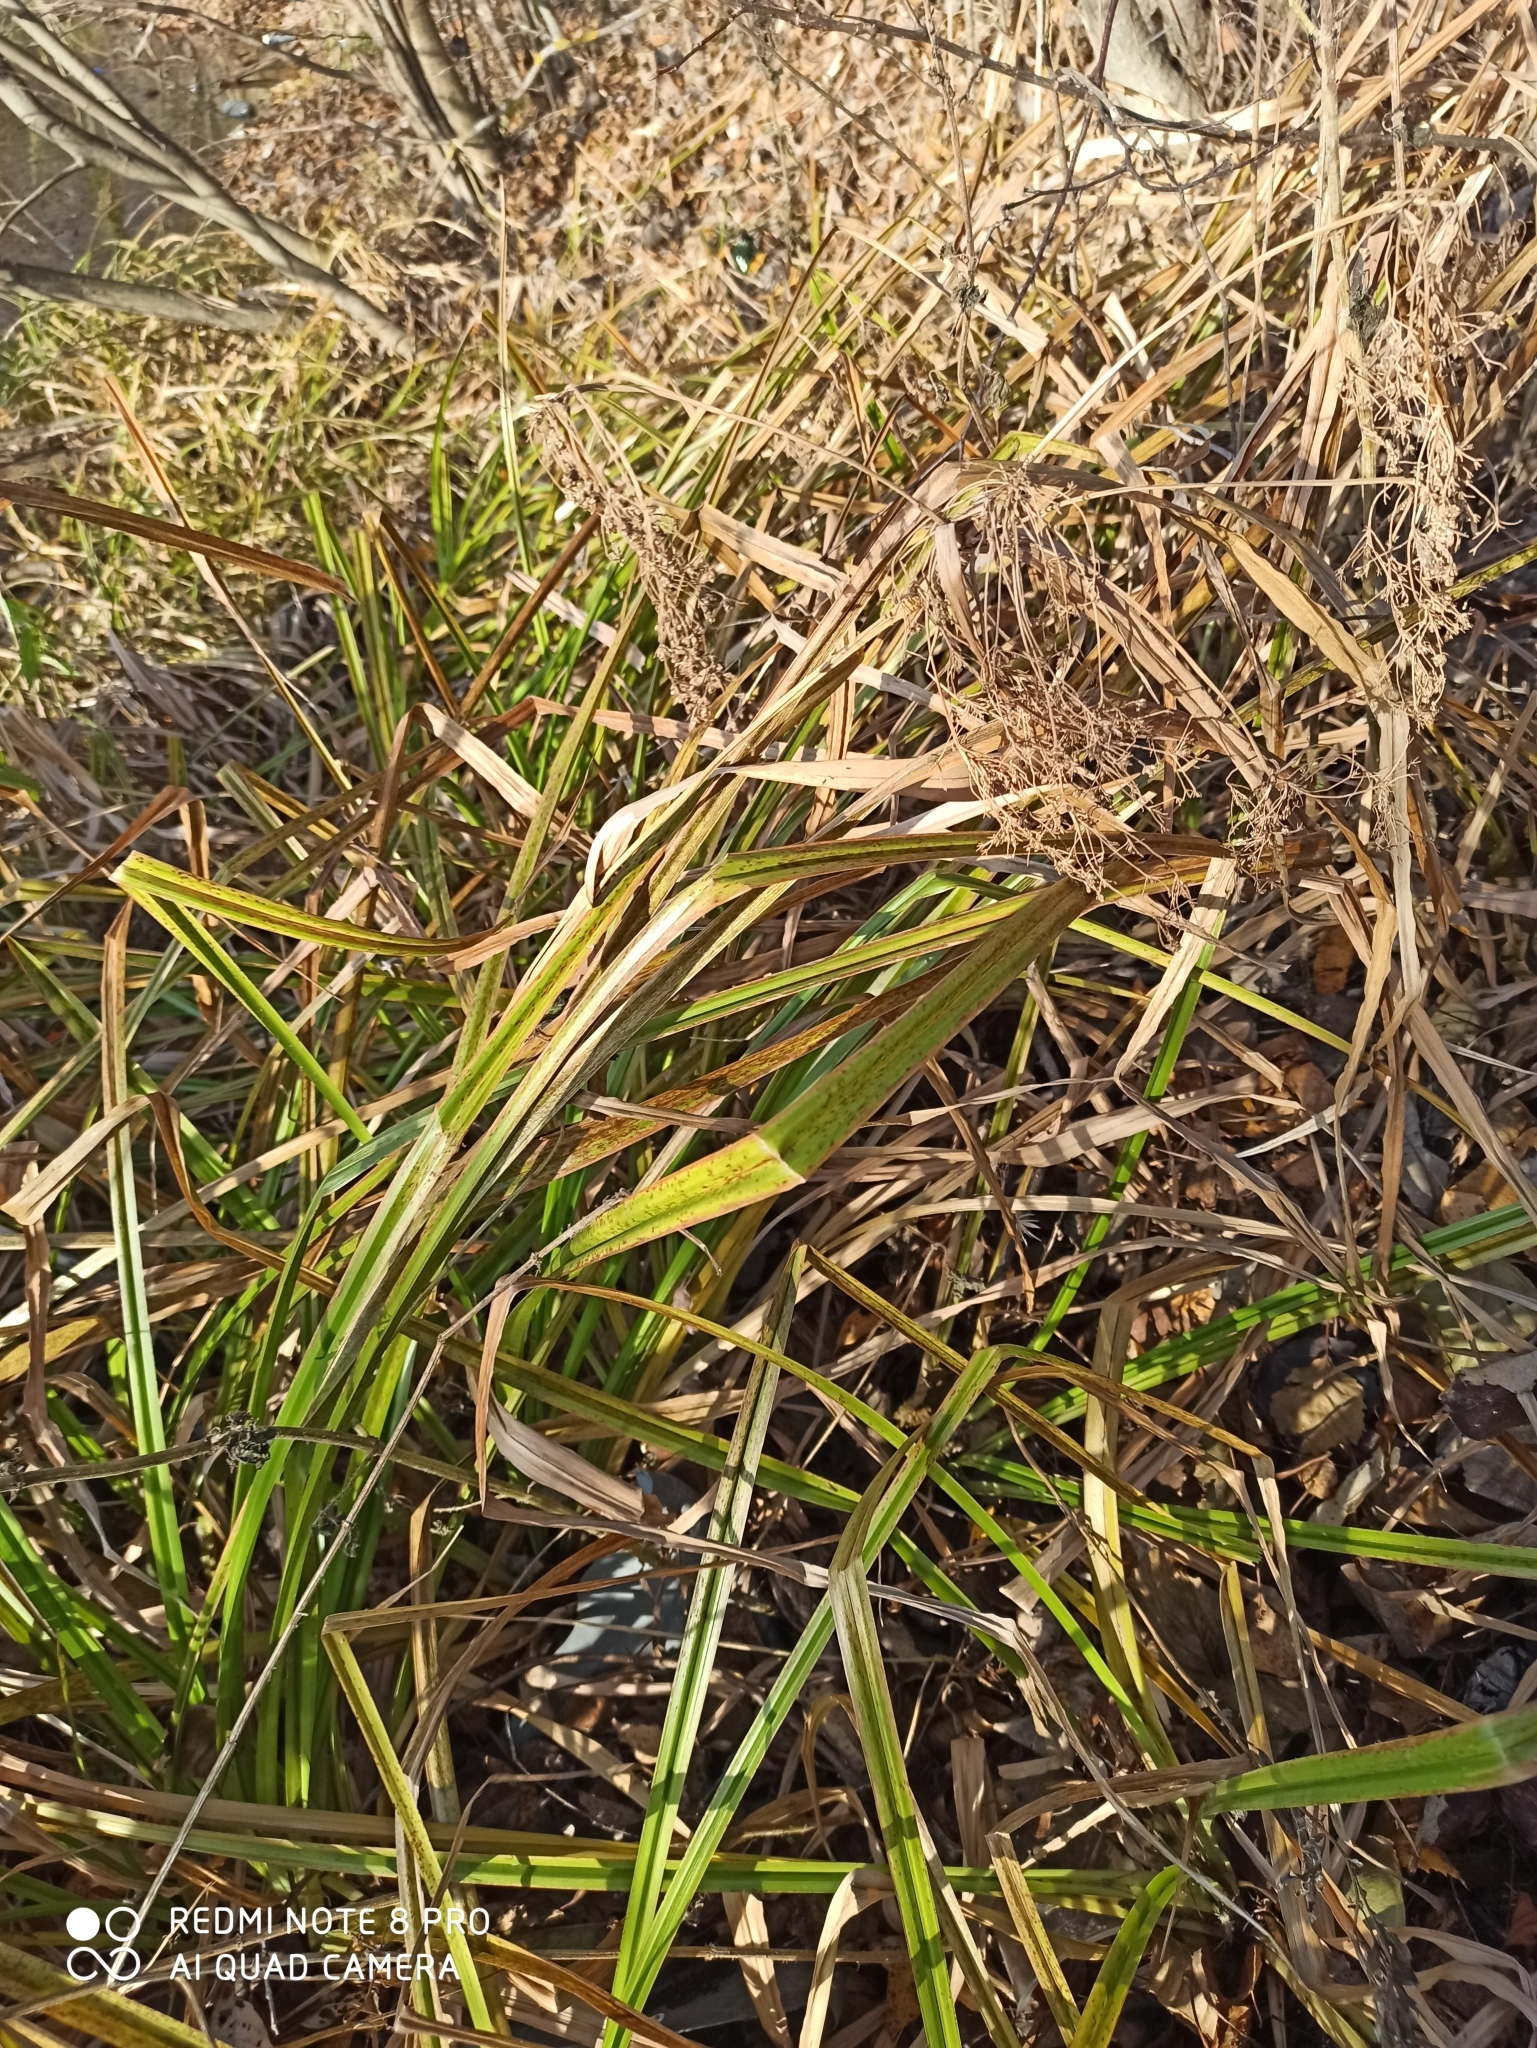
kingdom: Plantae
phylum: Tracheophyta
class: Liliopsida
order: Poales
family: Cyperaceae
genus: Scirpus
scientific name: Scirpus sylvaticus
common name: Wood club-rush
